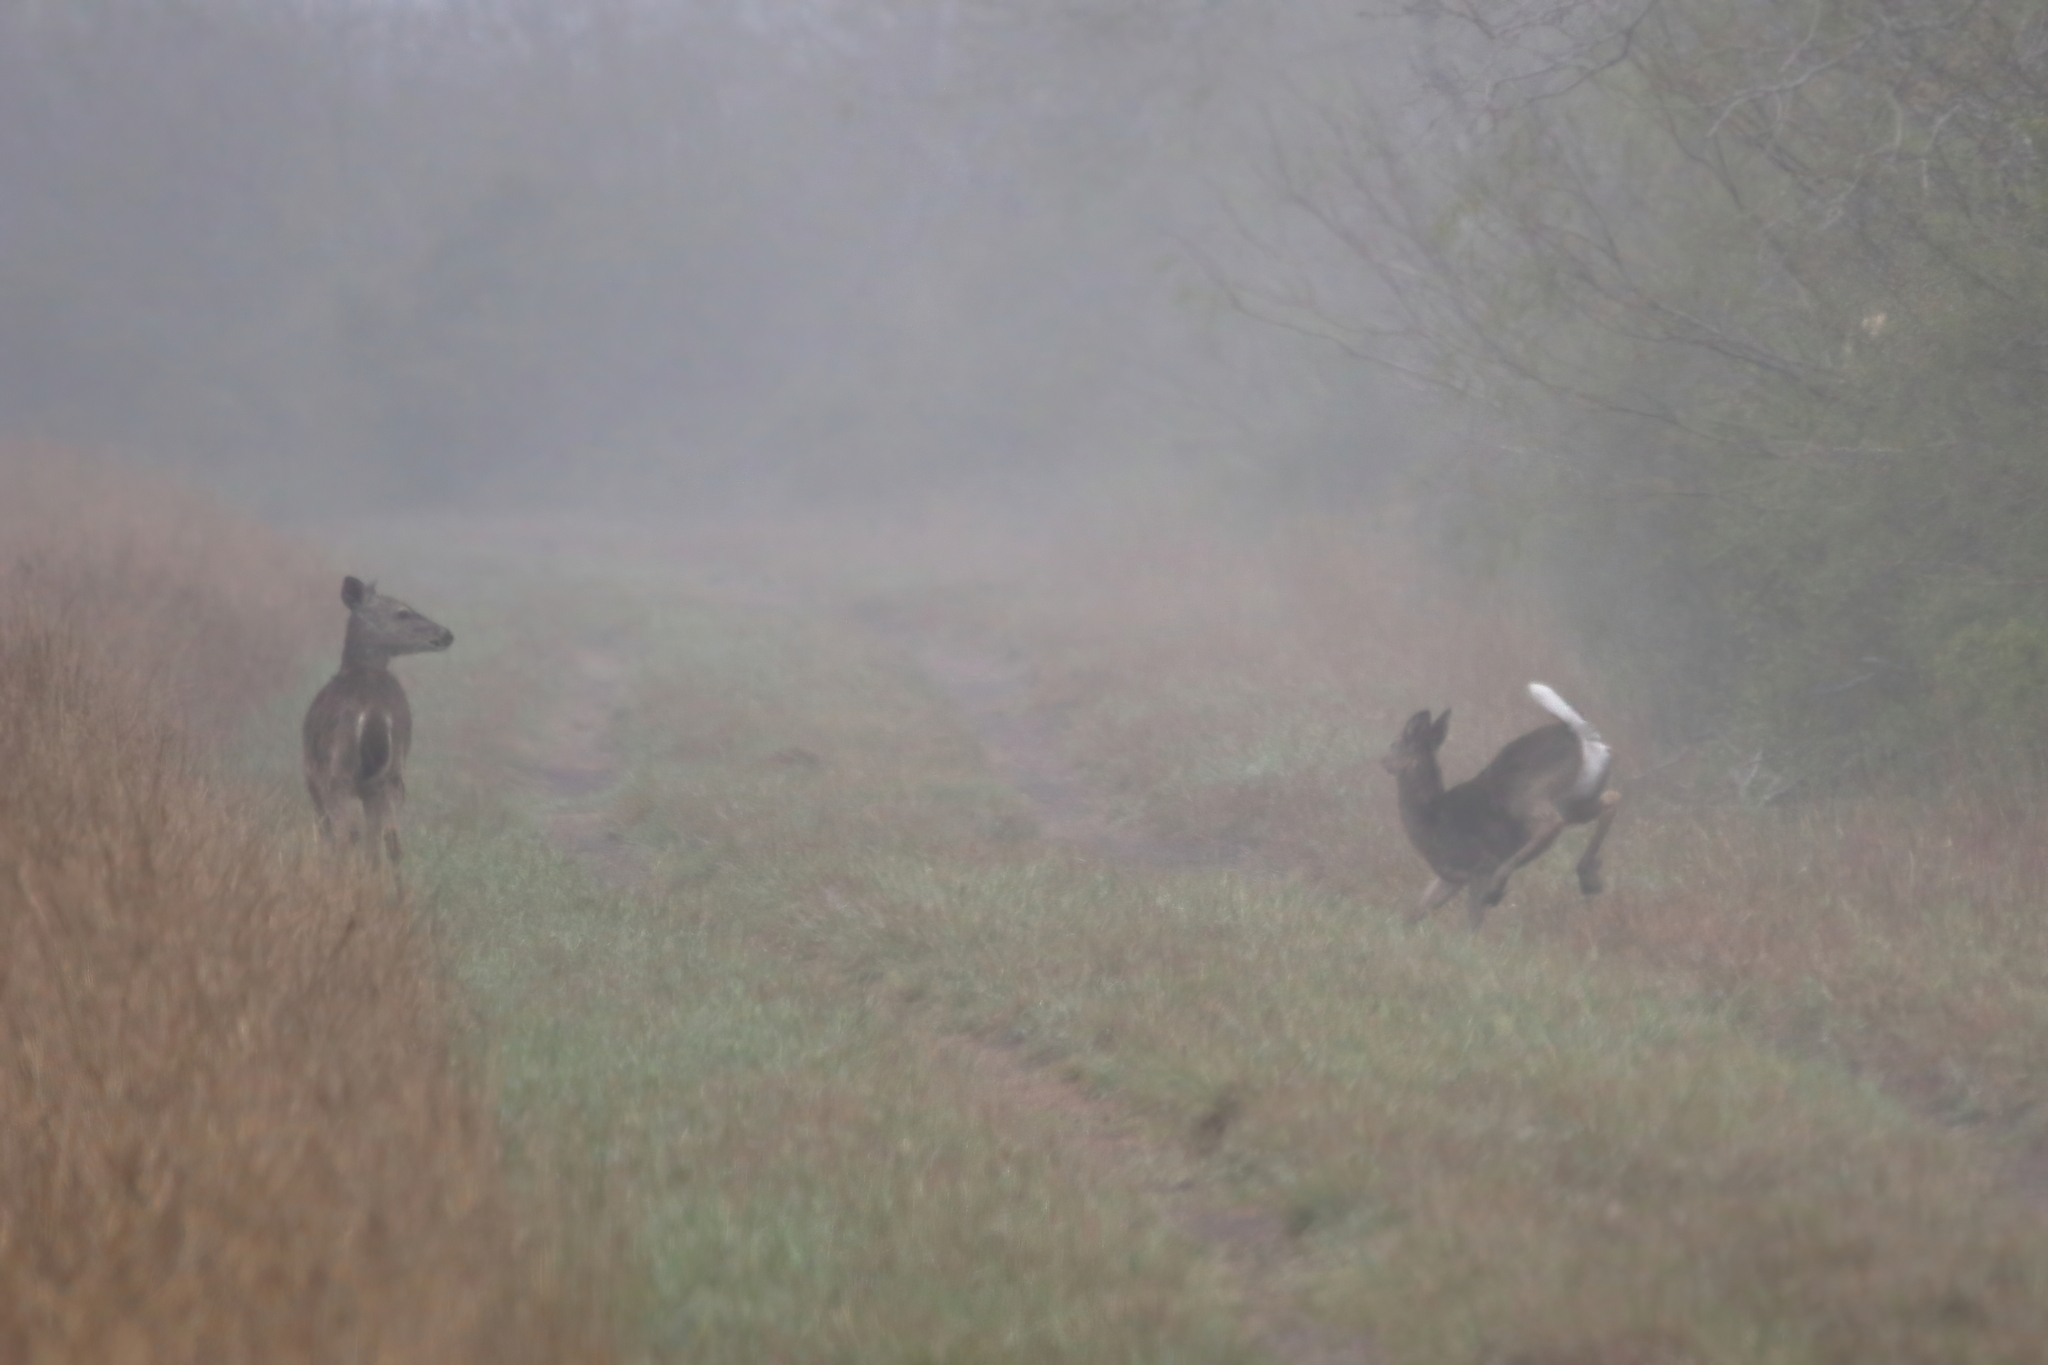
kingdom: Animalia
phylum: Chordata
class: Mammalia
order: Artiodactyla
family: Cervidae
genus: Odocoileus
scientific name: Odocoileus virginianus
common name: White-tailed deer
